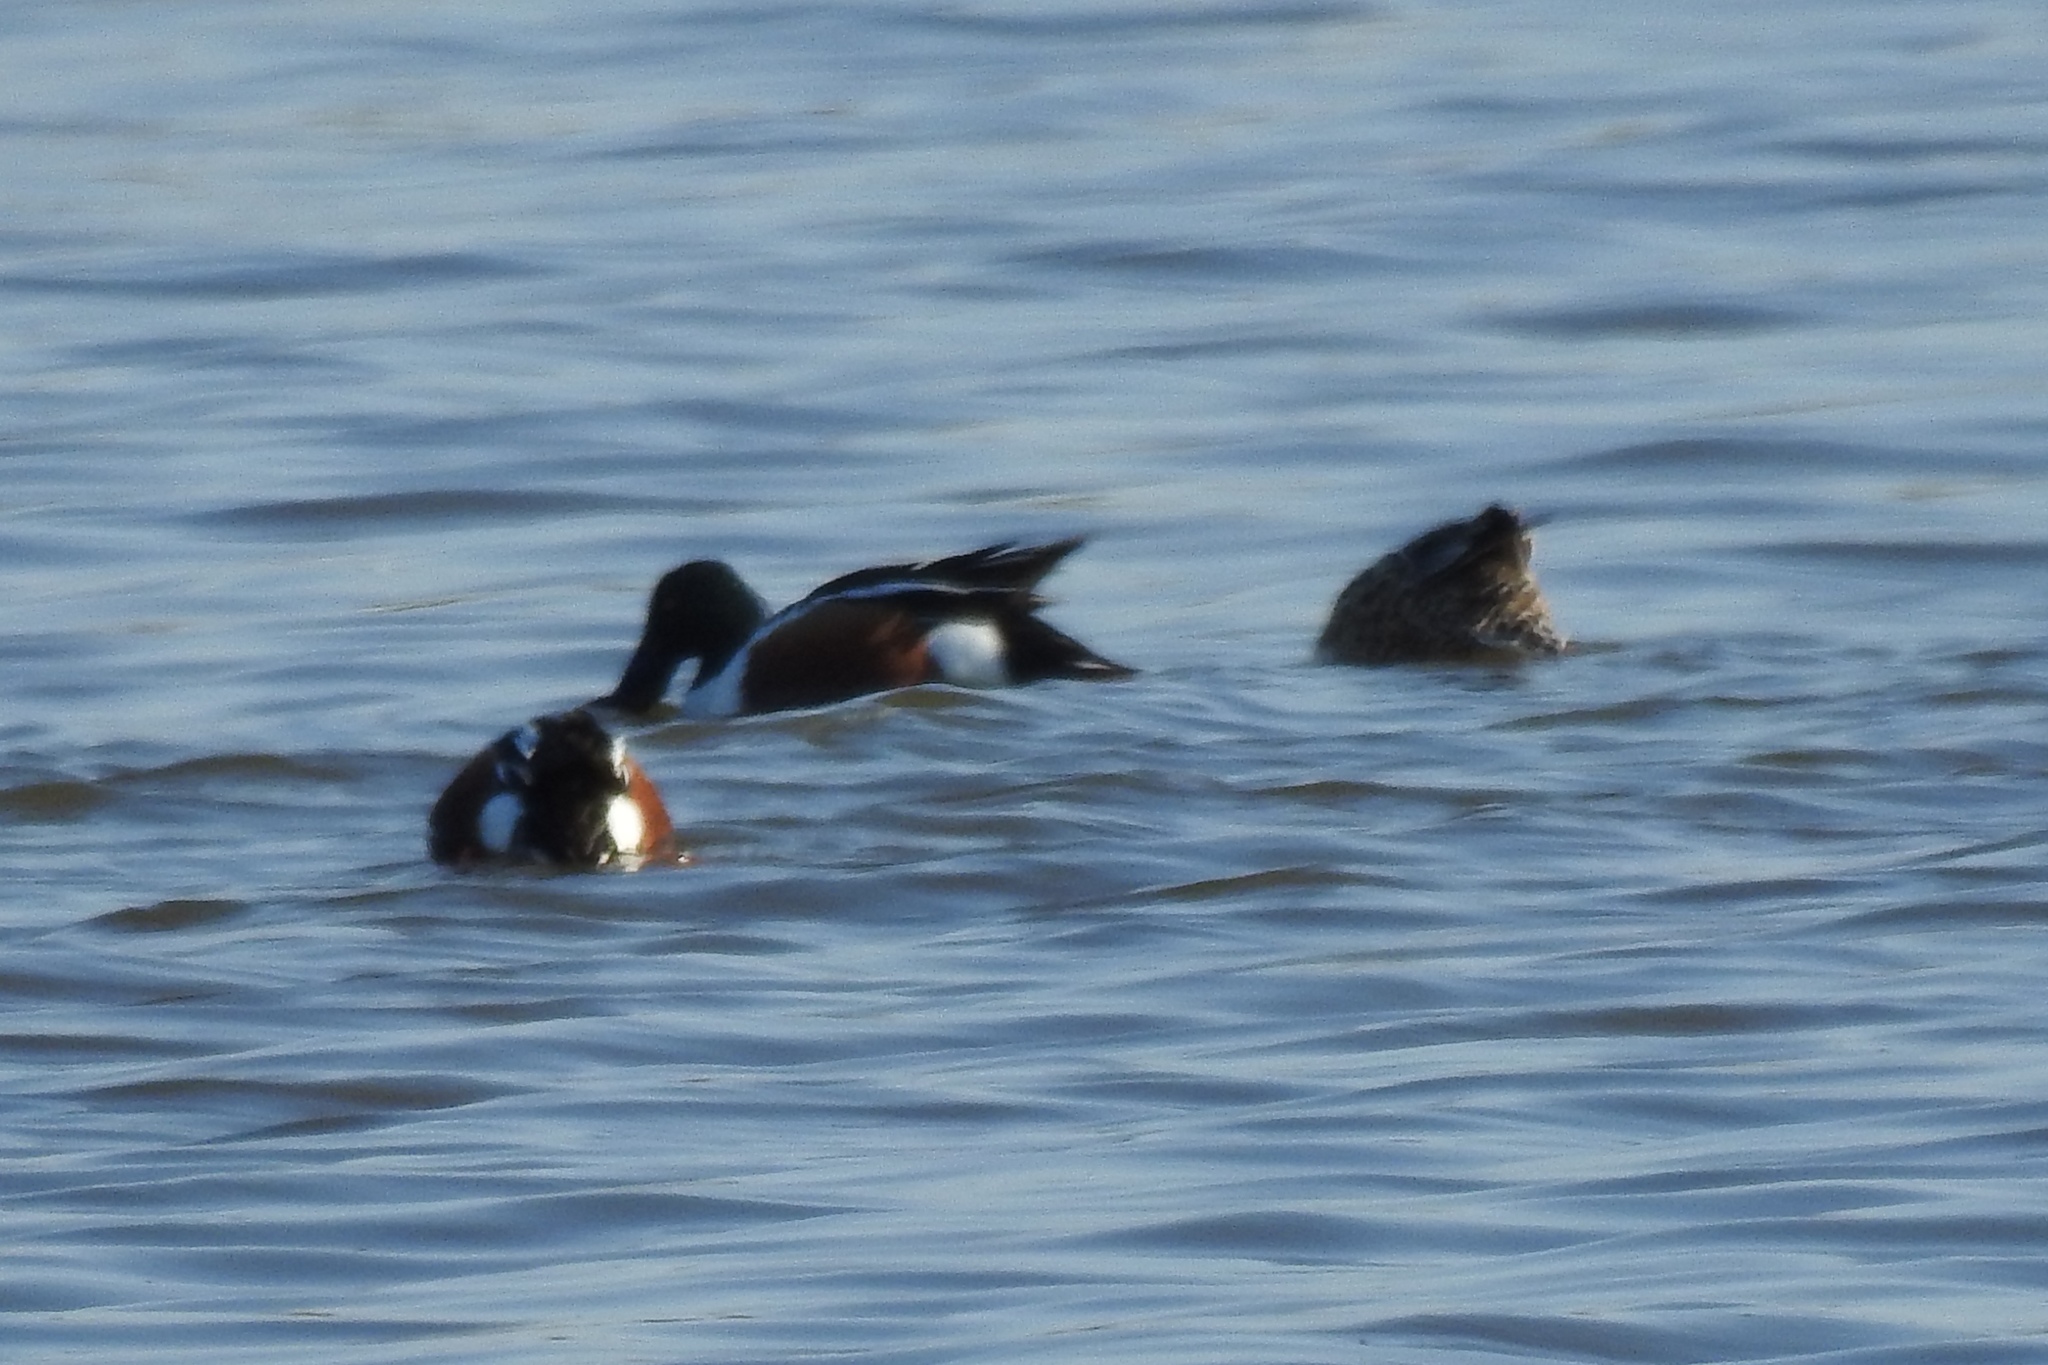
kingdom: Animalia
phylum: Chordata
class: Aves
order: Anseriformes
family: Anatidae
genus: Spatula
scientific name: Spatula clypeata
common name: Northern shoveler
